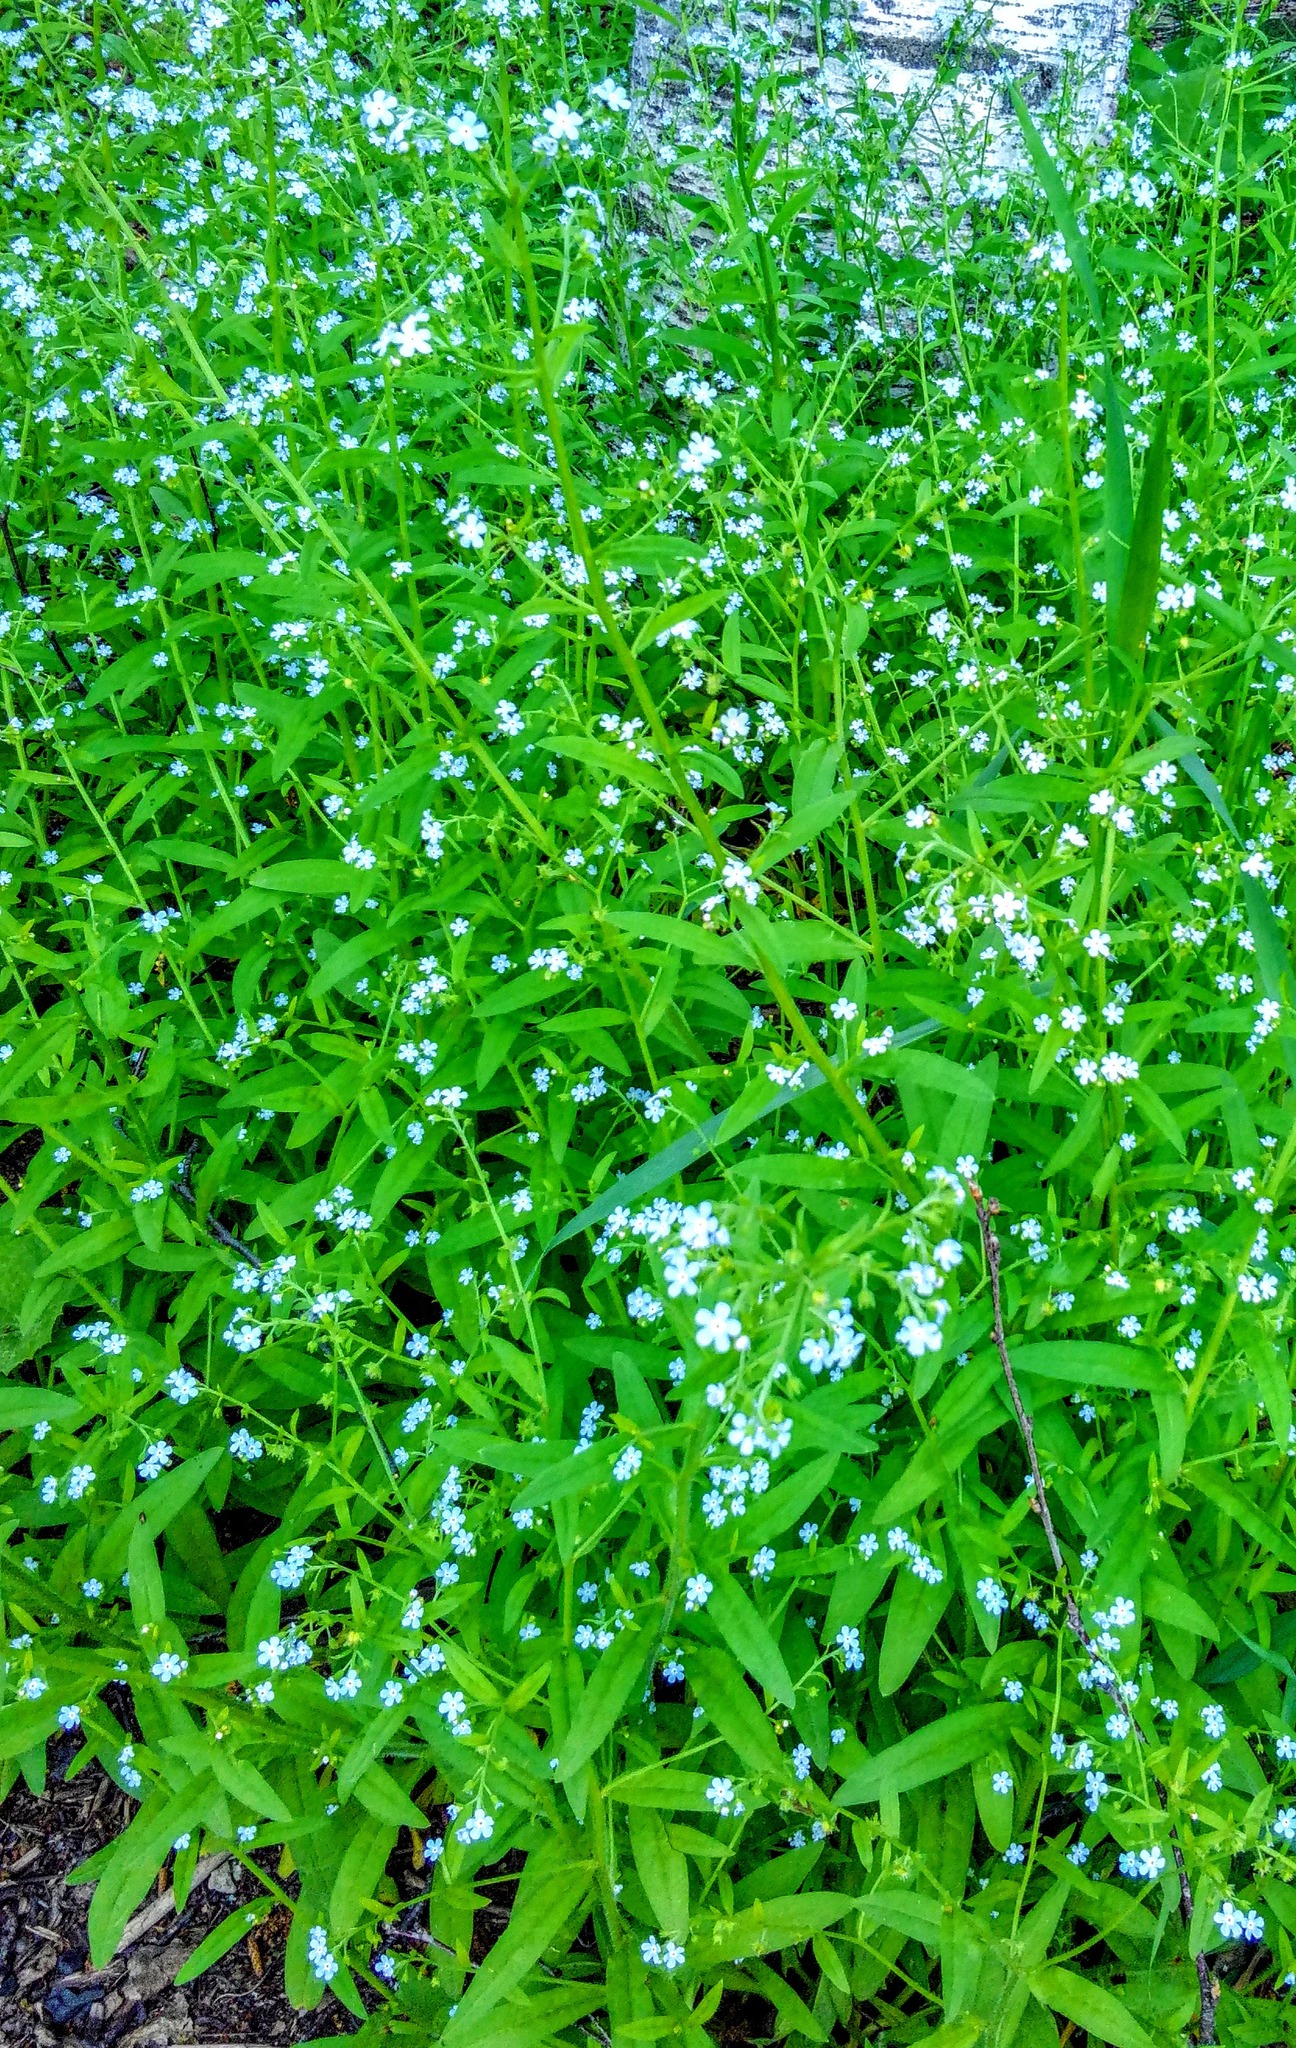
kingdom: Plantae
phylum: Tracheophyta
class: Magnoliopsida
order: Boraginales
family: Boraginaceae
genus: Hackelia
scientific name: Hackelia deflexa
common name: Nodding stickseed
